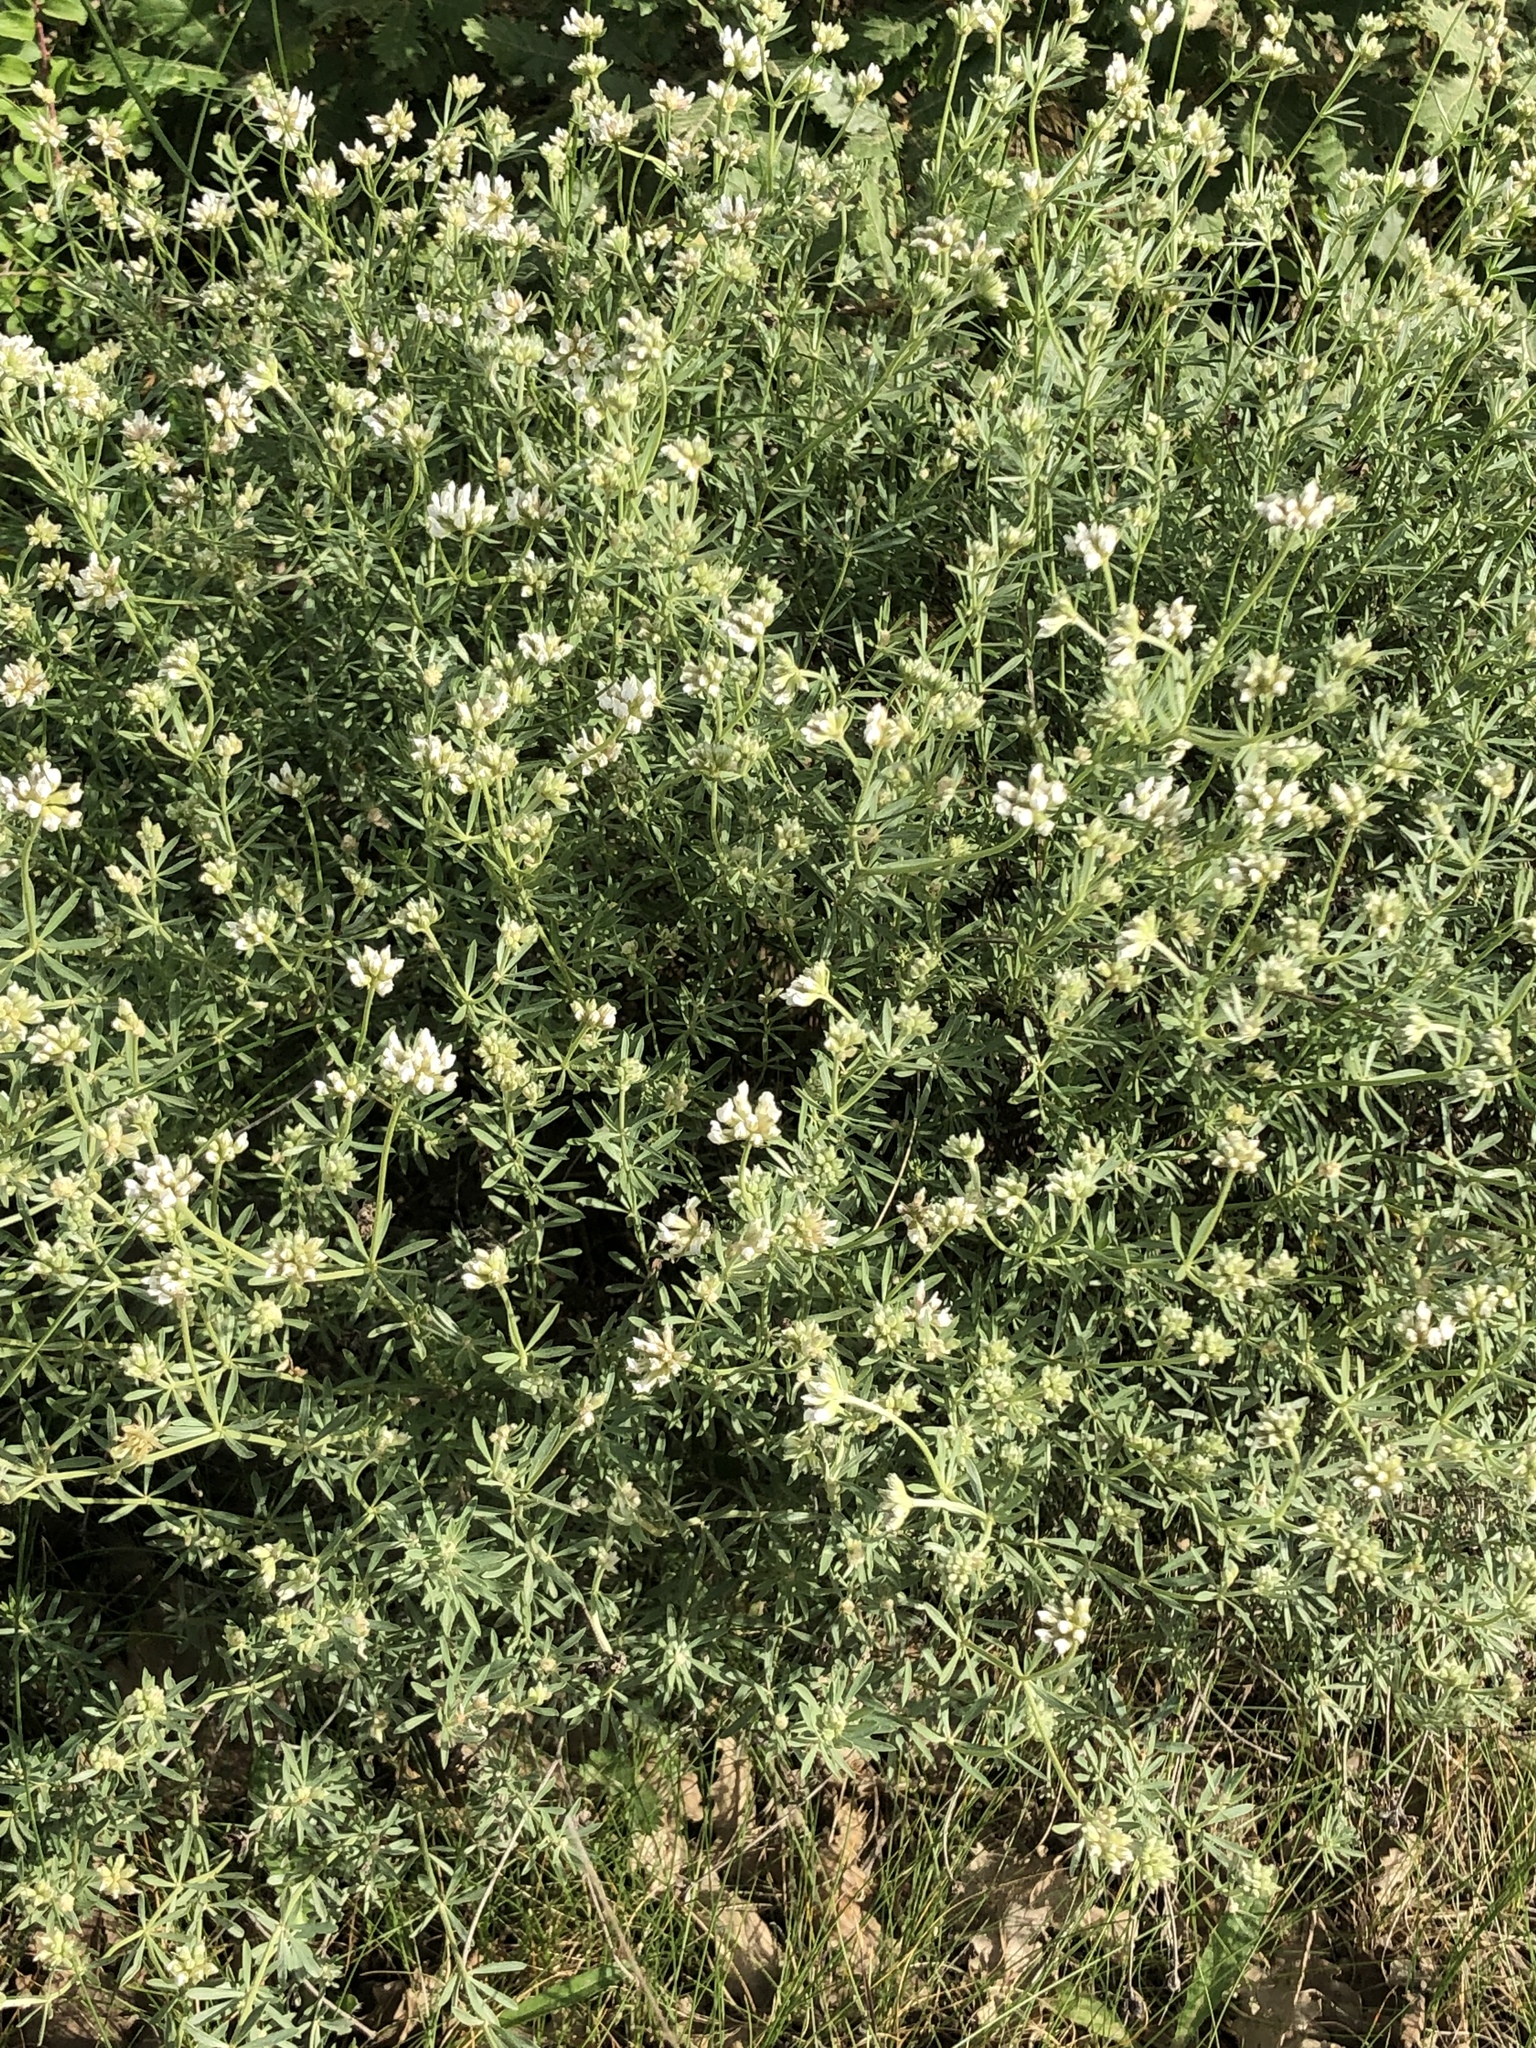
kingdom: Plantae
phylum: Tracheophyta
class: Magnoliopsida
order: Fabales
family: Fabaceae
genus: Lotus
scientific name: Lotus dorycnium
